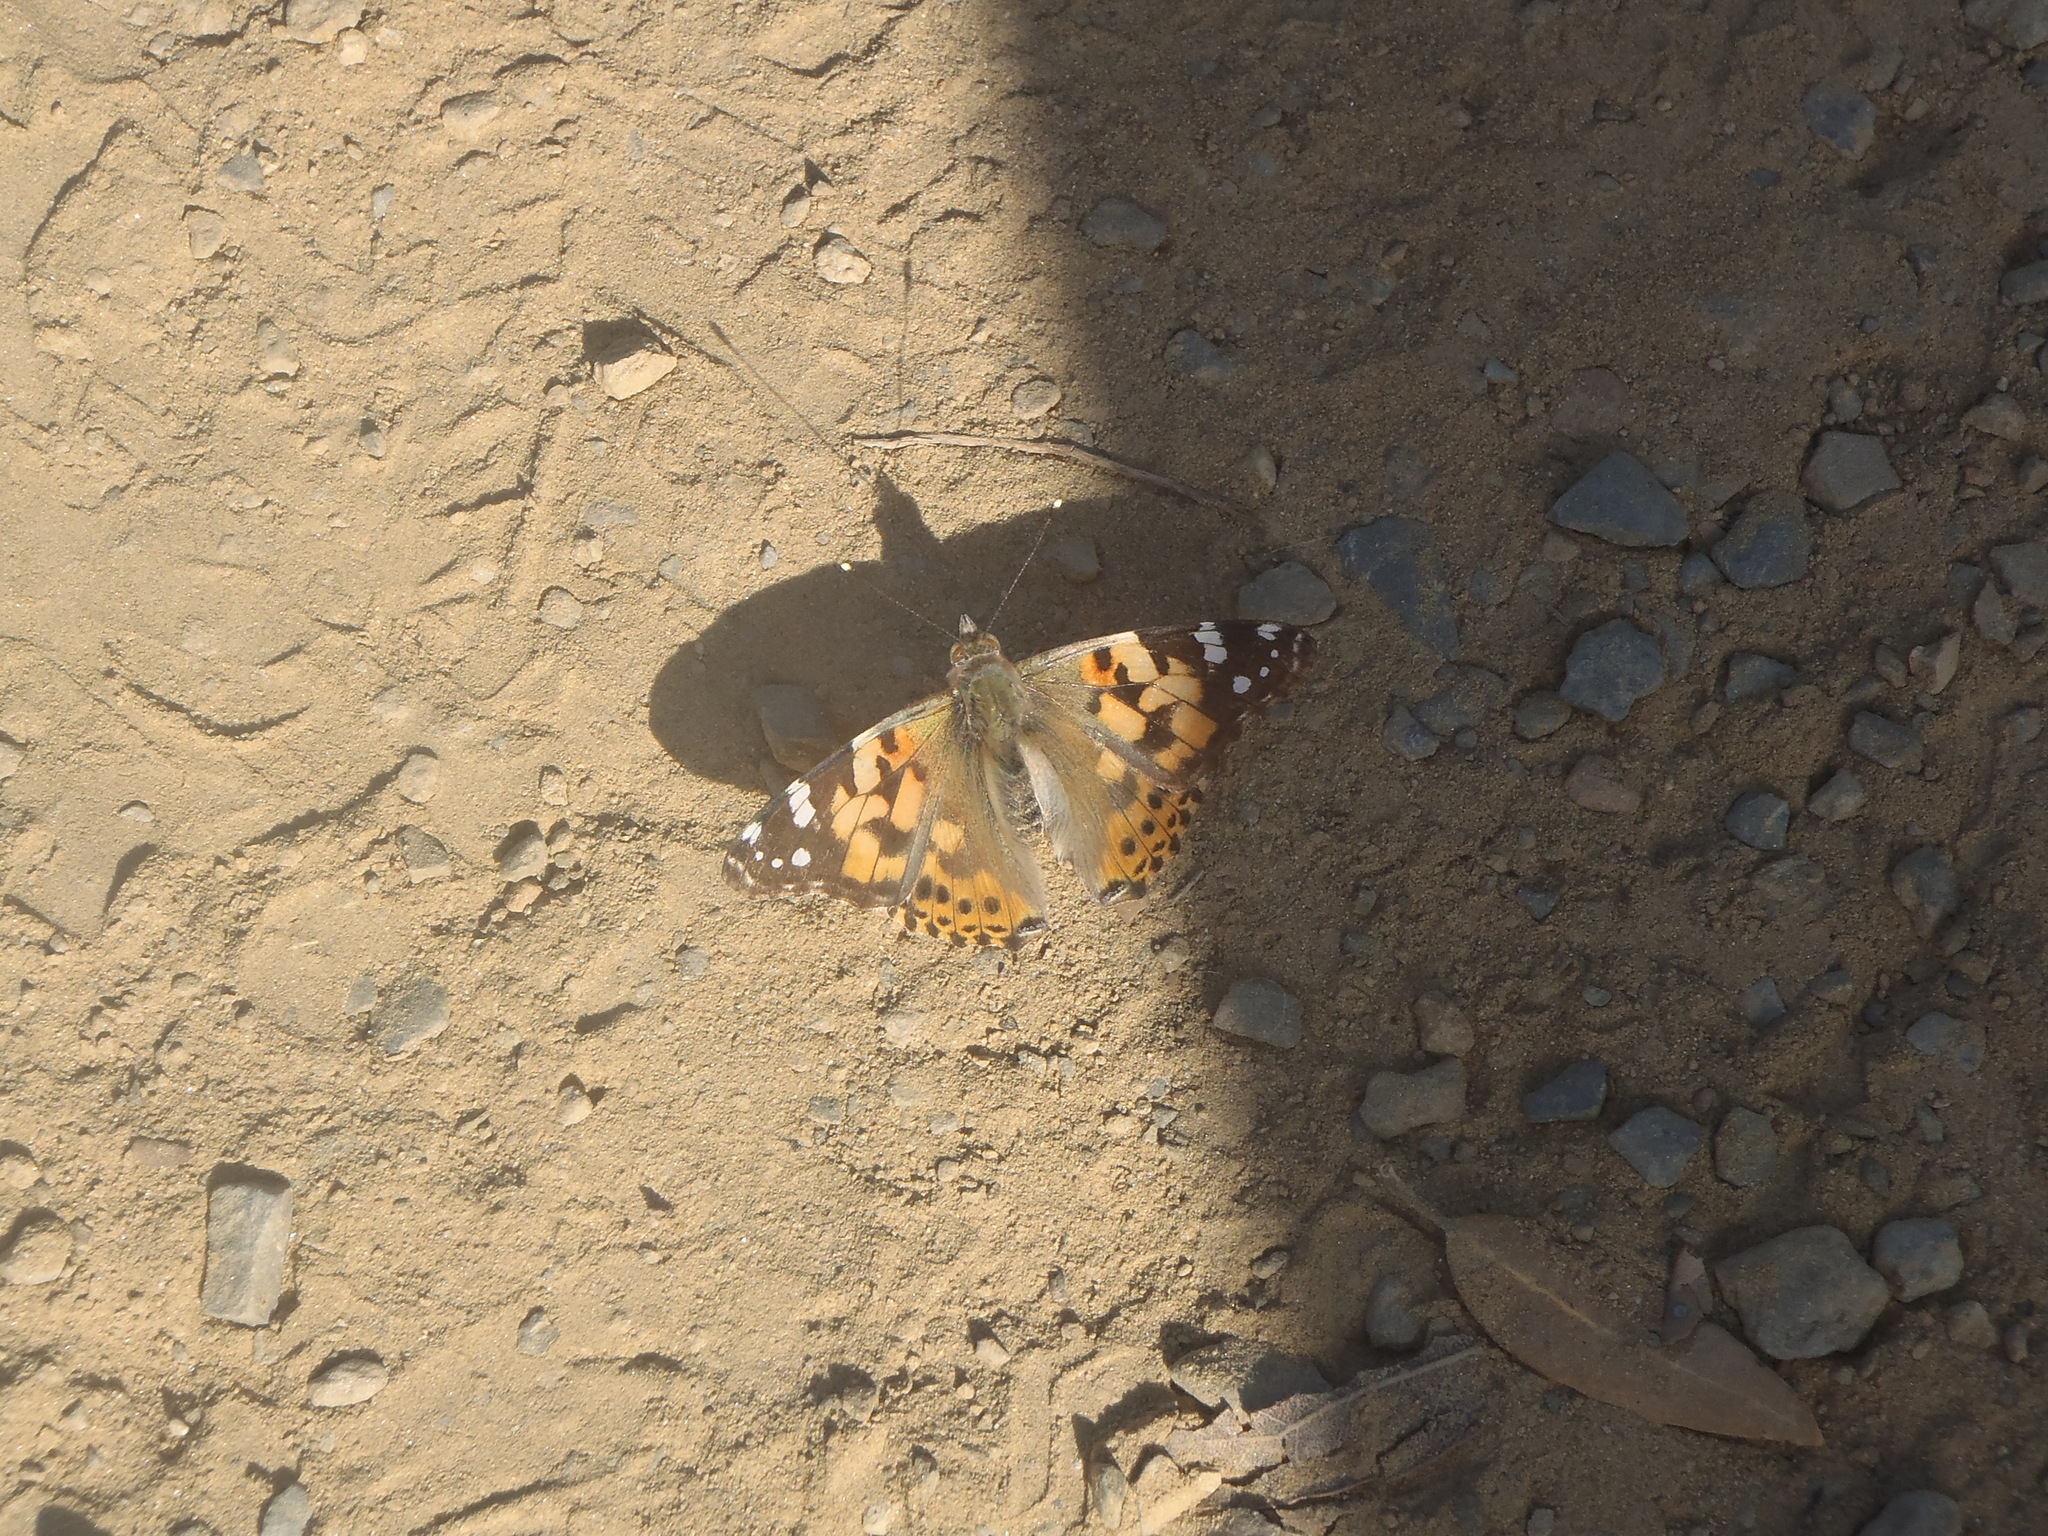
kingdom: Animalia
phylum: Arthropoda
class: Insecta
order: Lepidoptera
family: Nymphalidae
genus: Vanessa
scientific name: Vanessa cardui
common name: Painted lady
